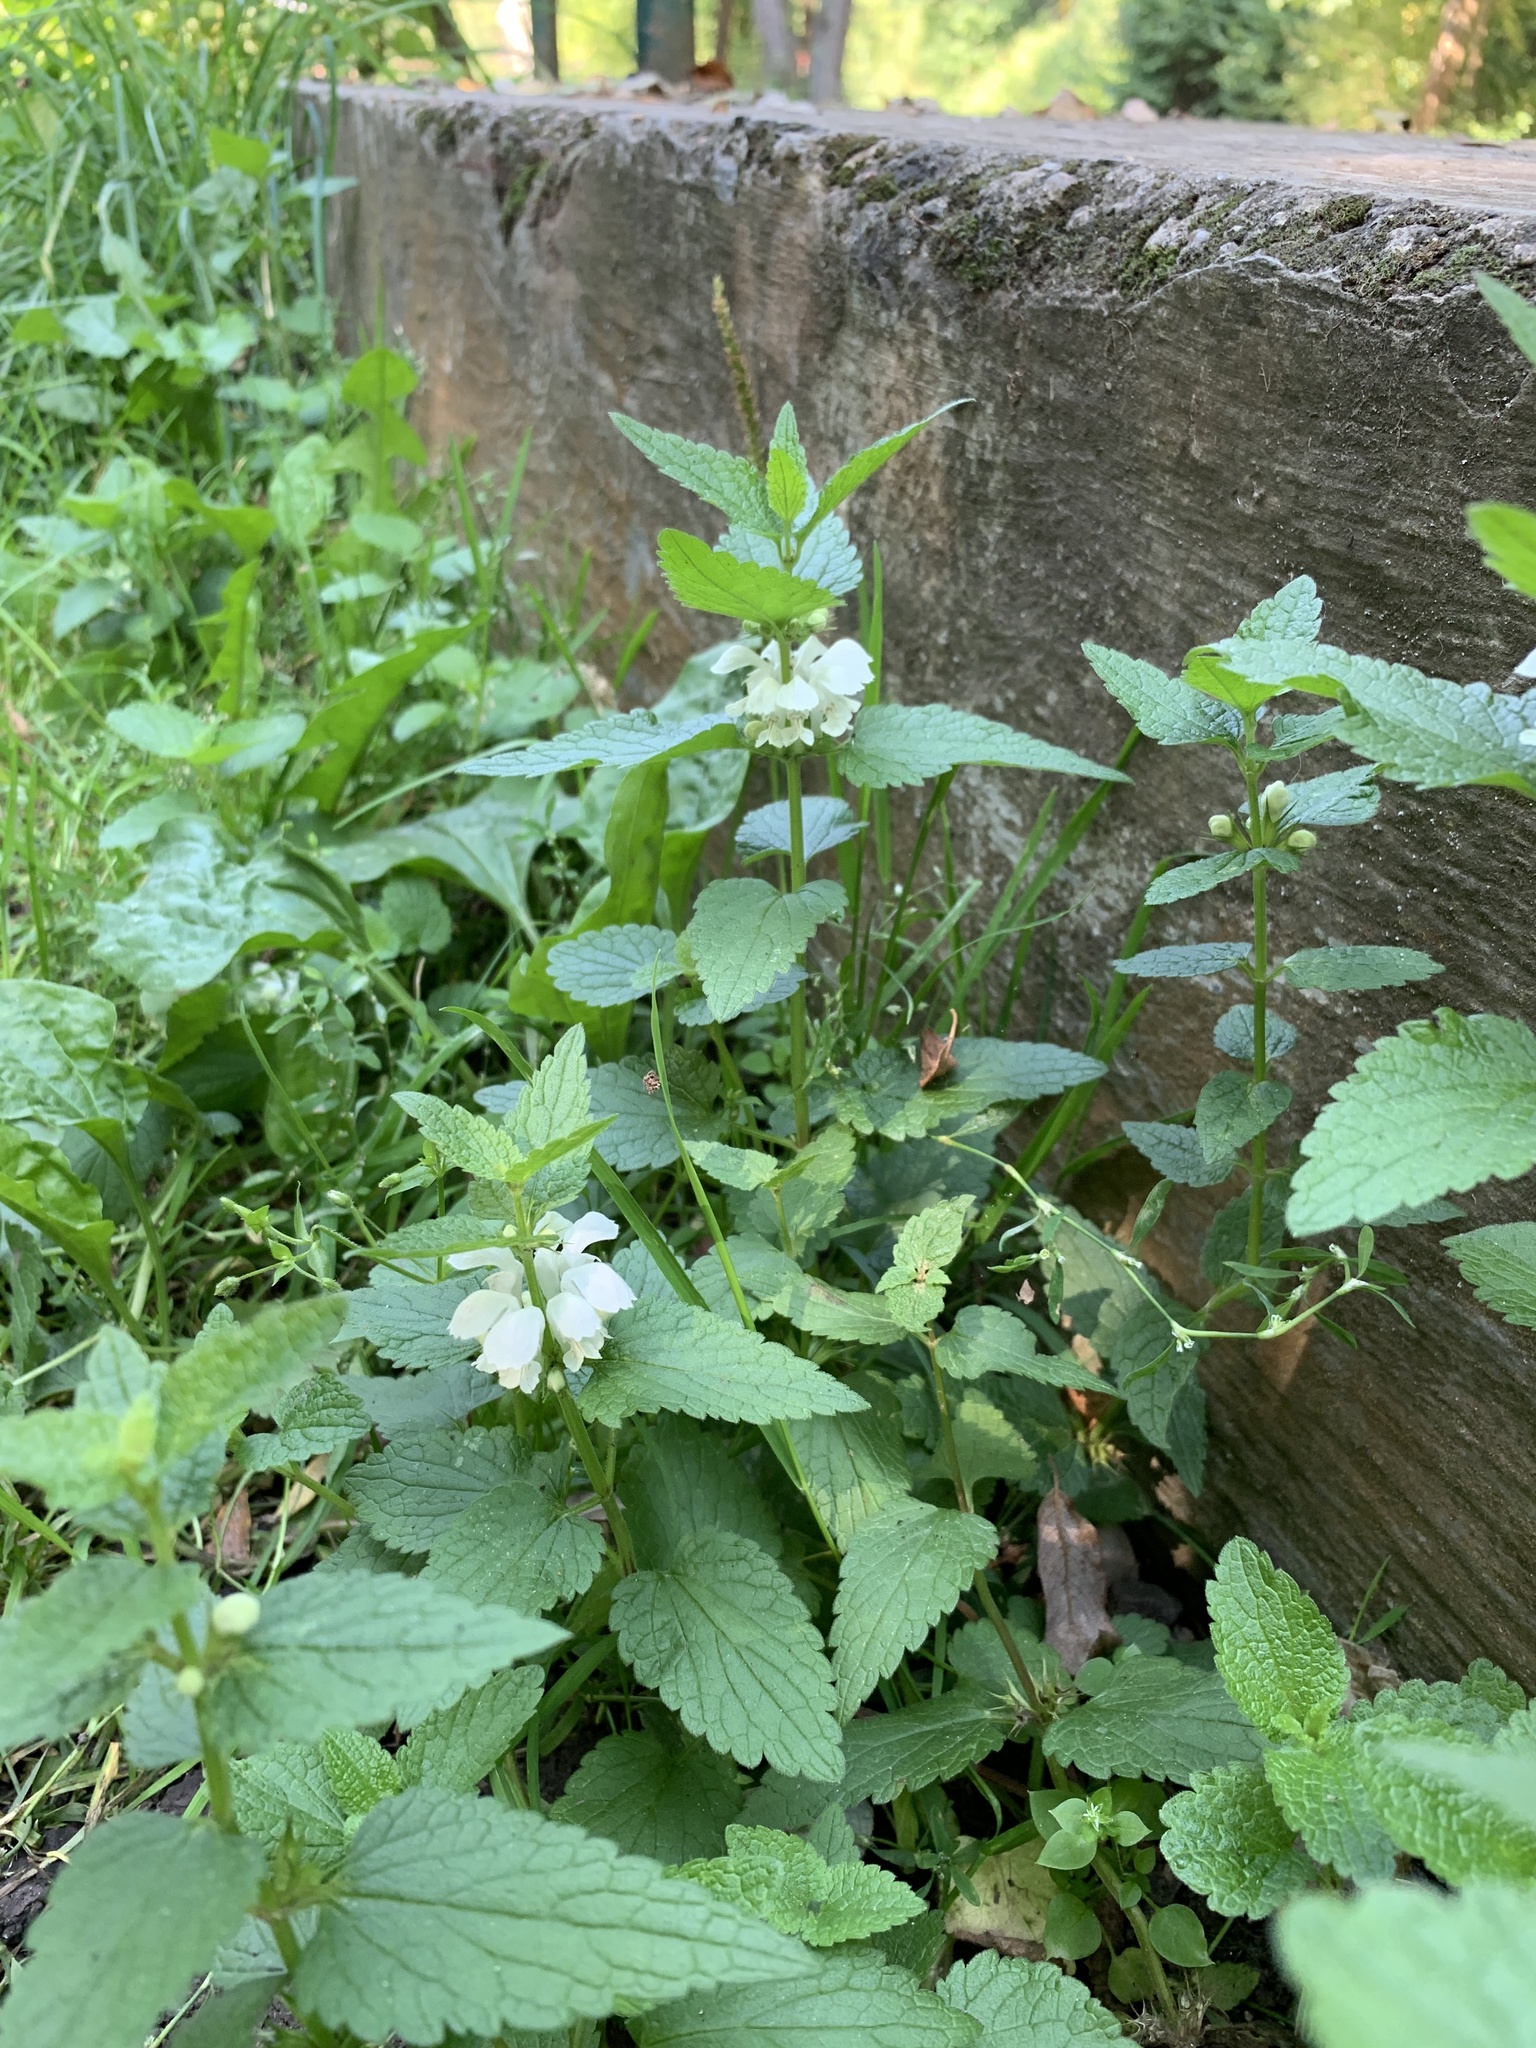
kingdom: Plantae
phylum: Tracheophyta
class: Magnoliopsida
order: Lamiales
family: Lamiaceae
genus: Lamium
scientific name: Lamium album
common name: White dead-nettle
